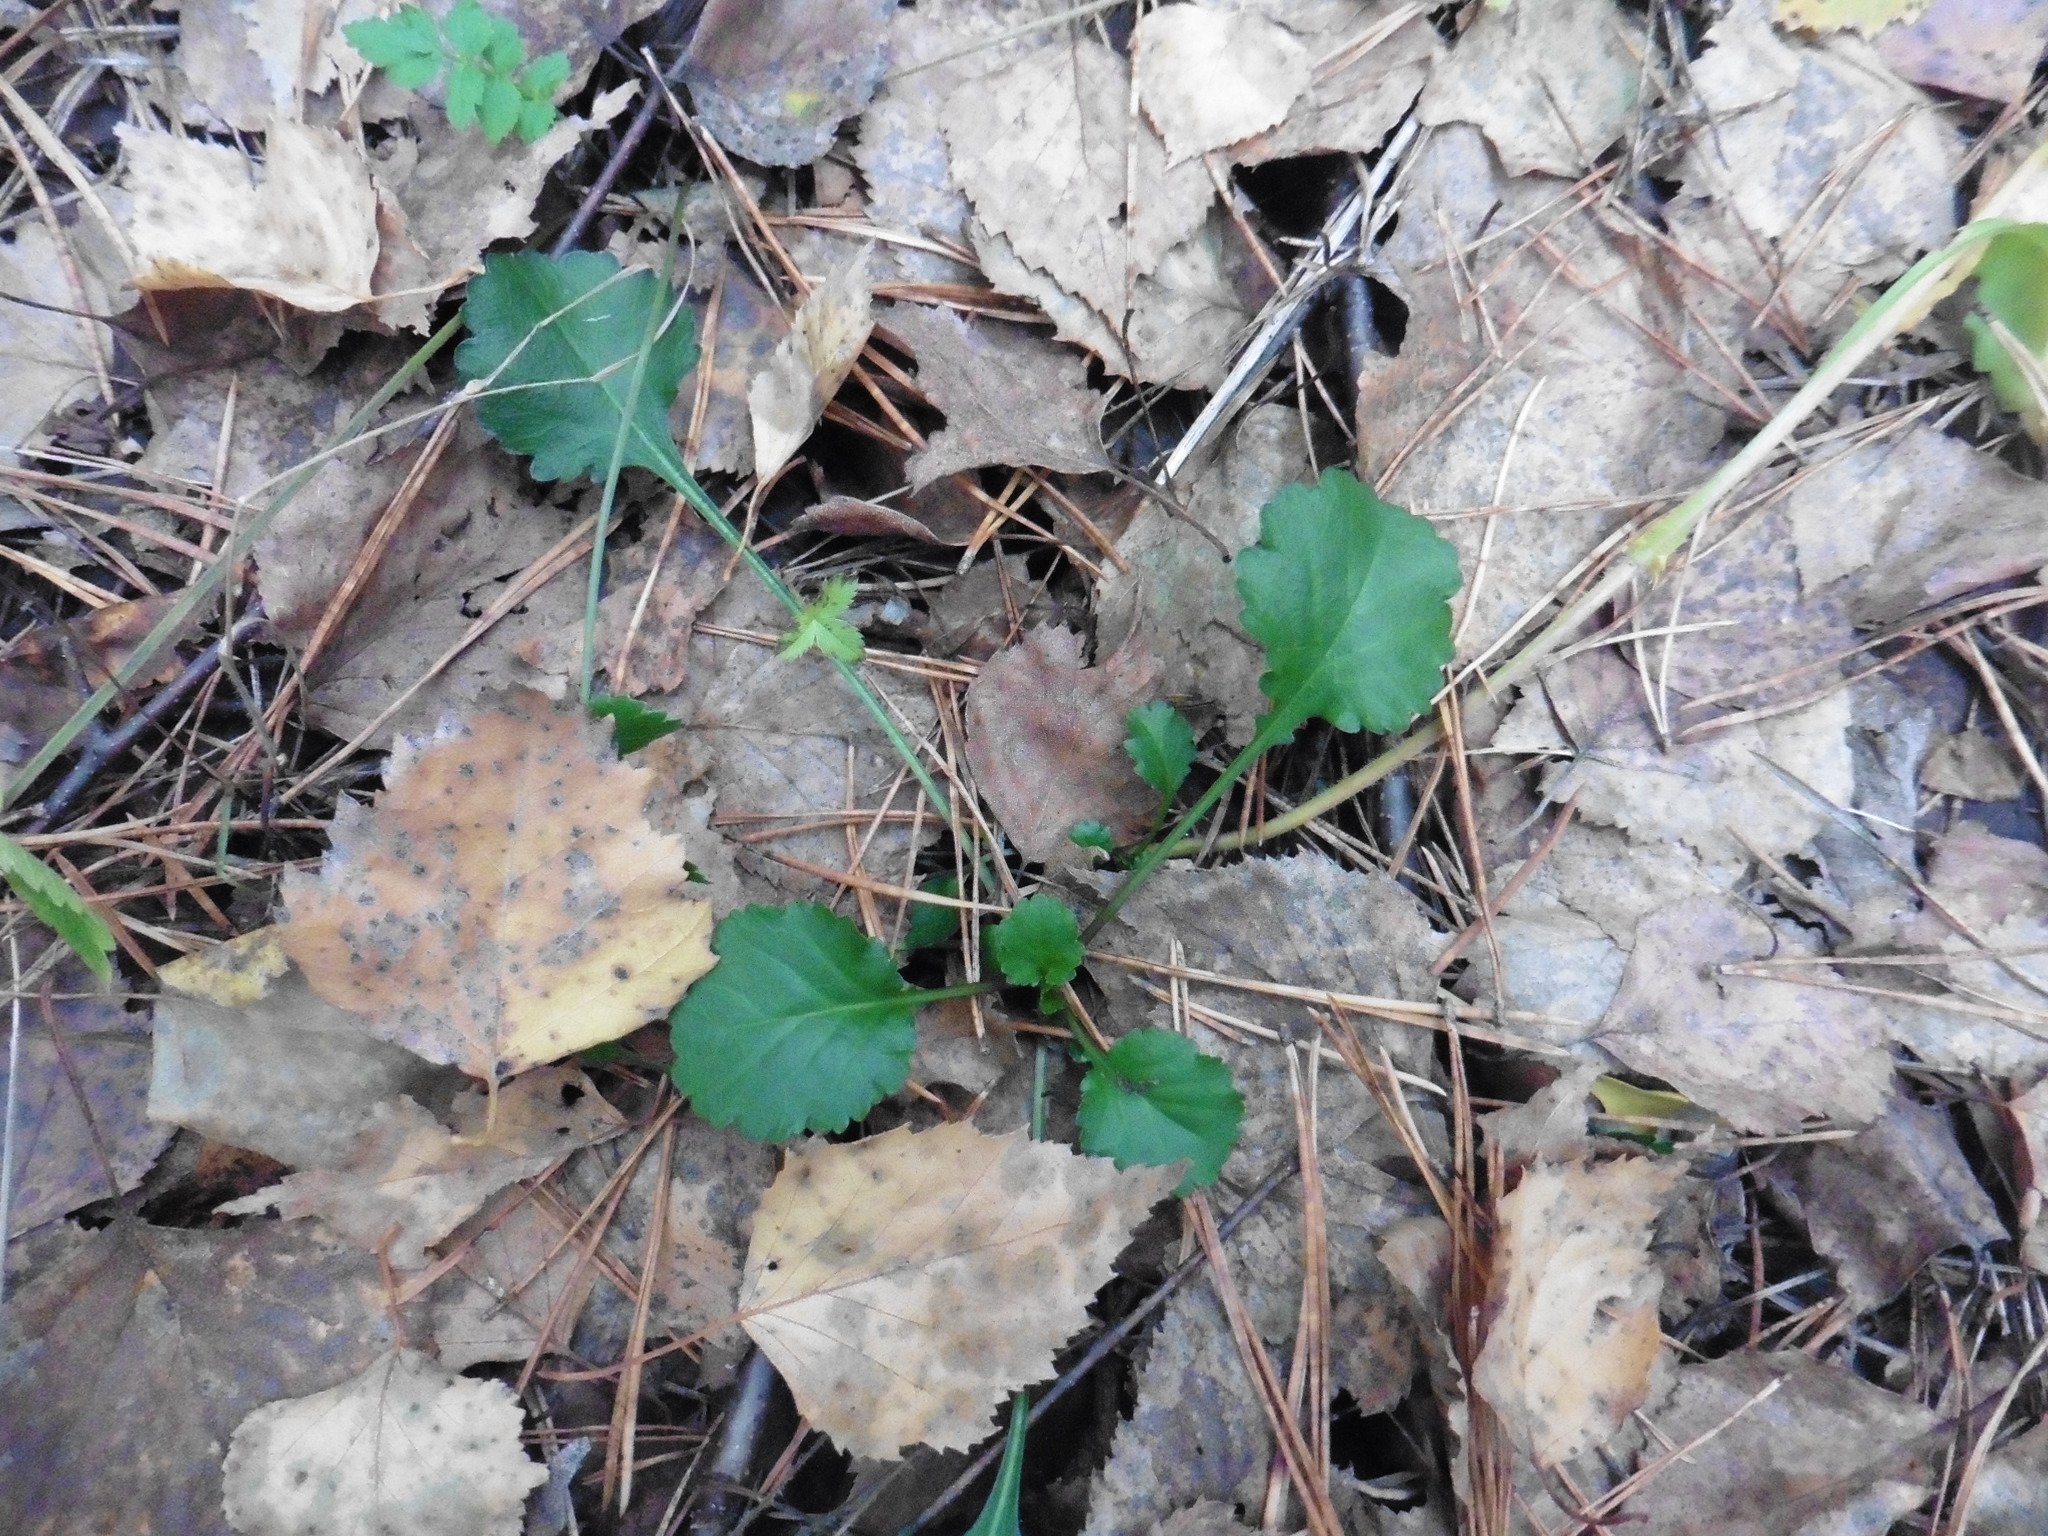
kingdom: Plantae
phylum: Tracheophyta
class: Magnoliopsida
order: Asterales
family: Asteraceae
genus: Leucanthemum
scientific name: Leucanthemum vulgare
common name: Oxeye daisy
